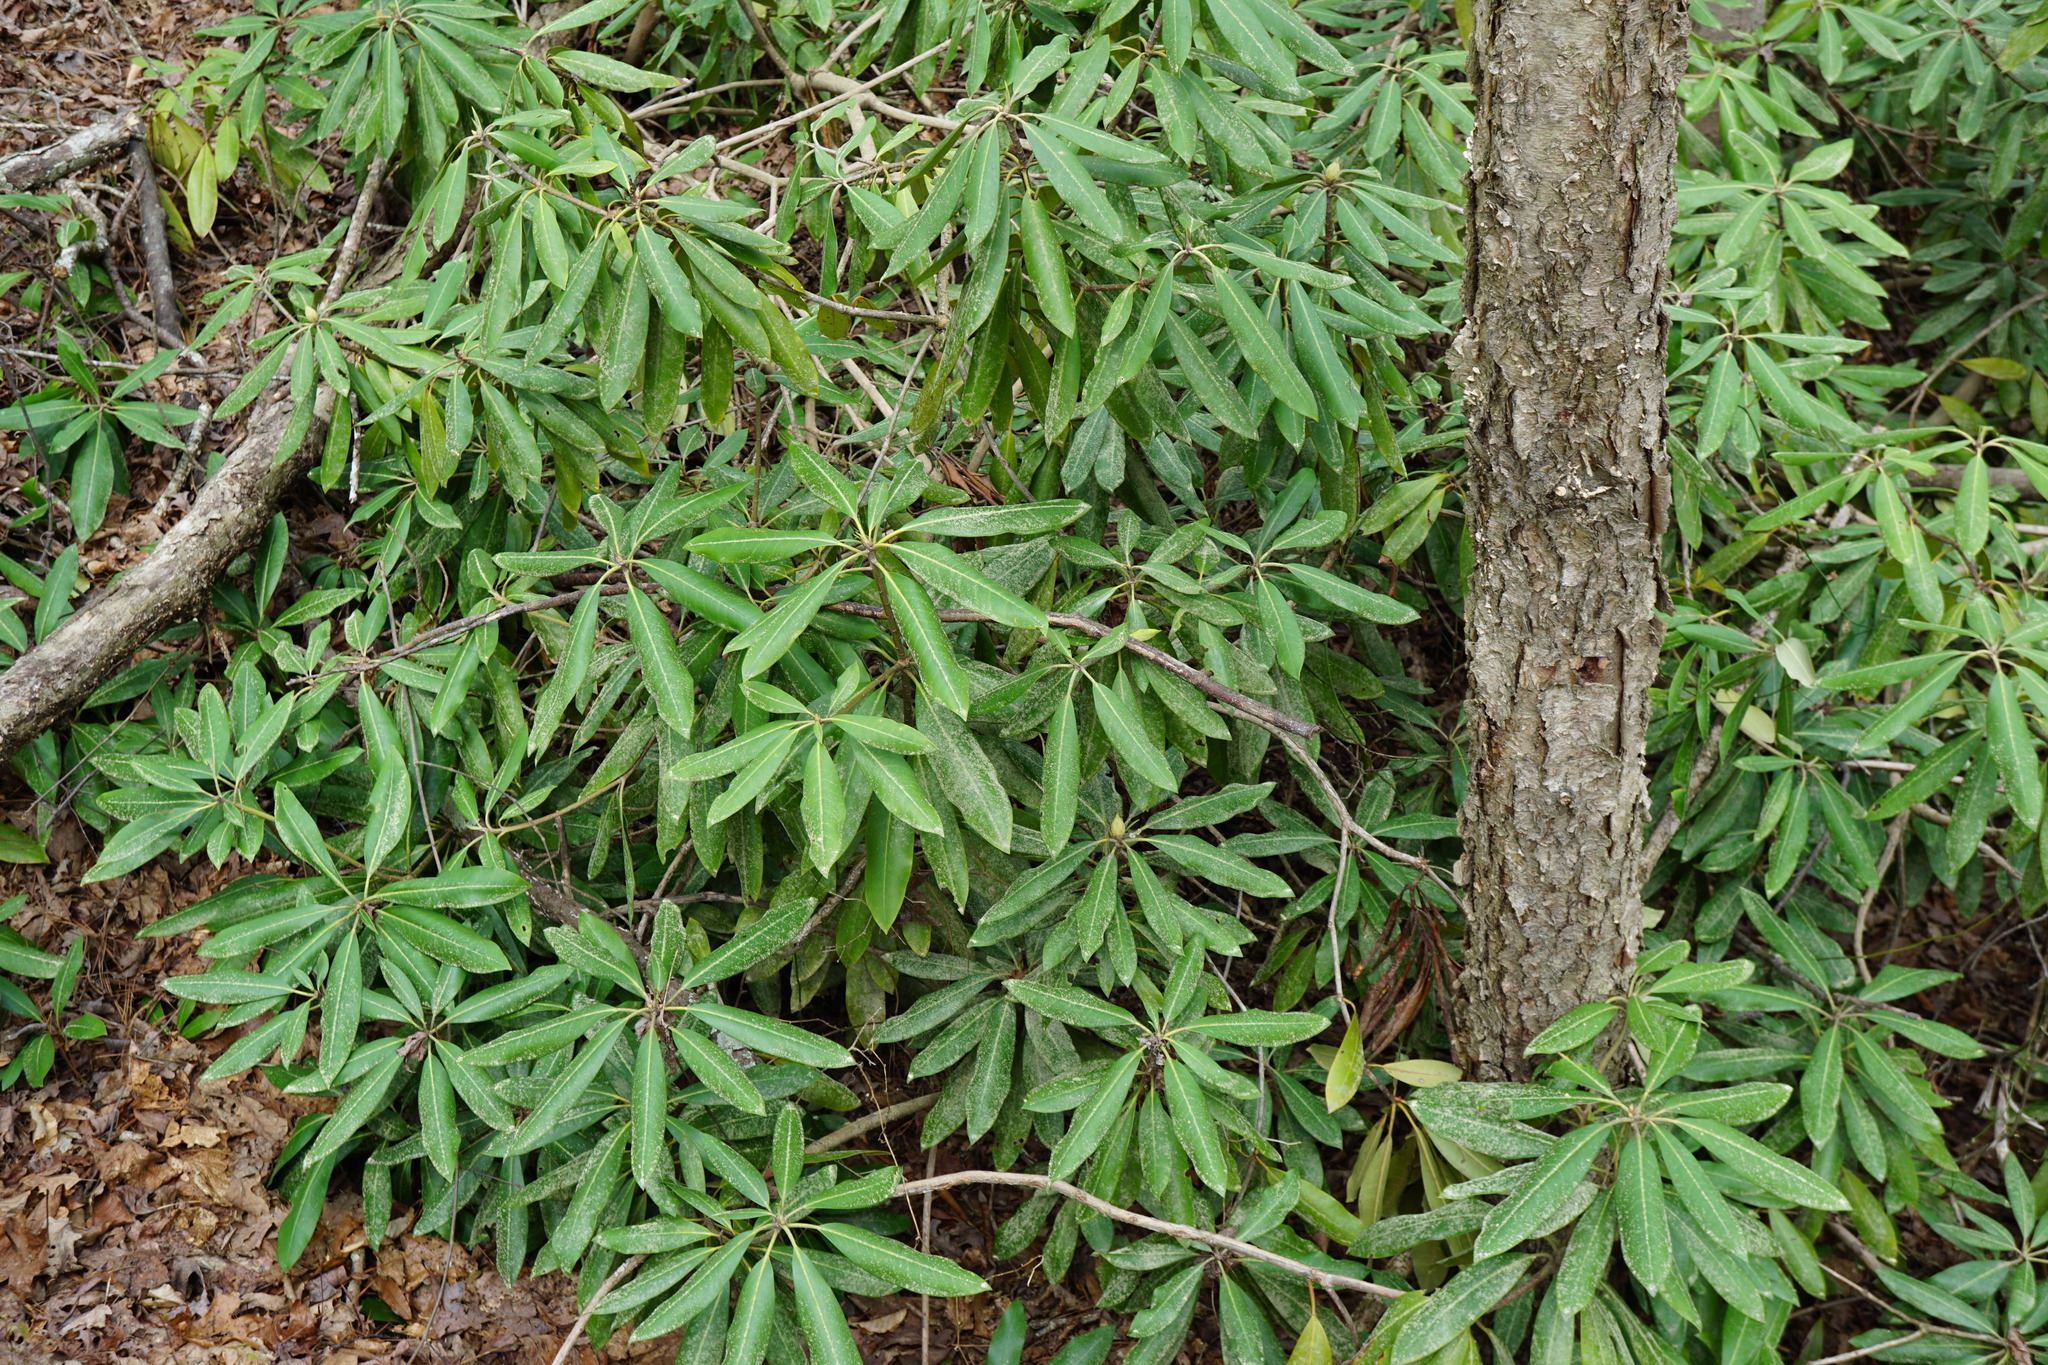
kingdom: Plantae
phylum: Tracheophyta
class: Magnoliopsida
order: Ericales
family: Ericaceae
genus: Rhododendron
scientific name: Rhododendron maximum
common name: Great rhododendron
